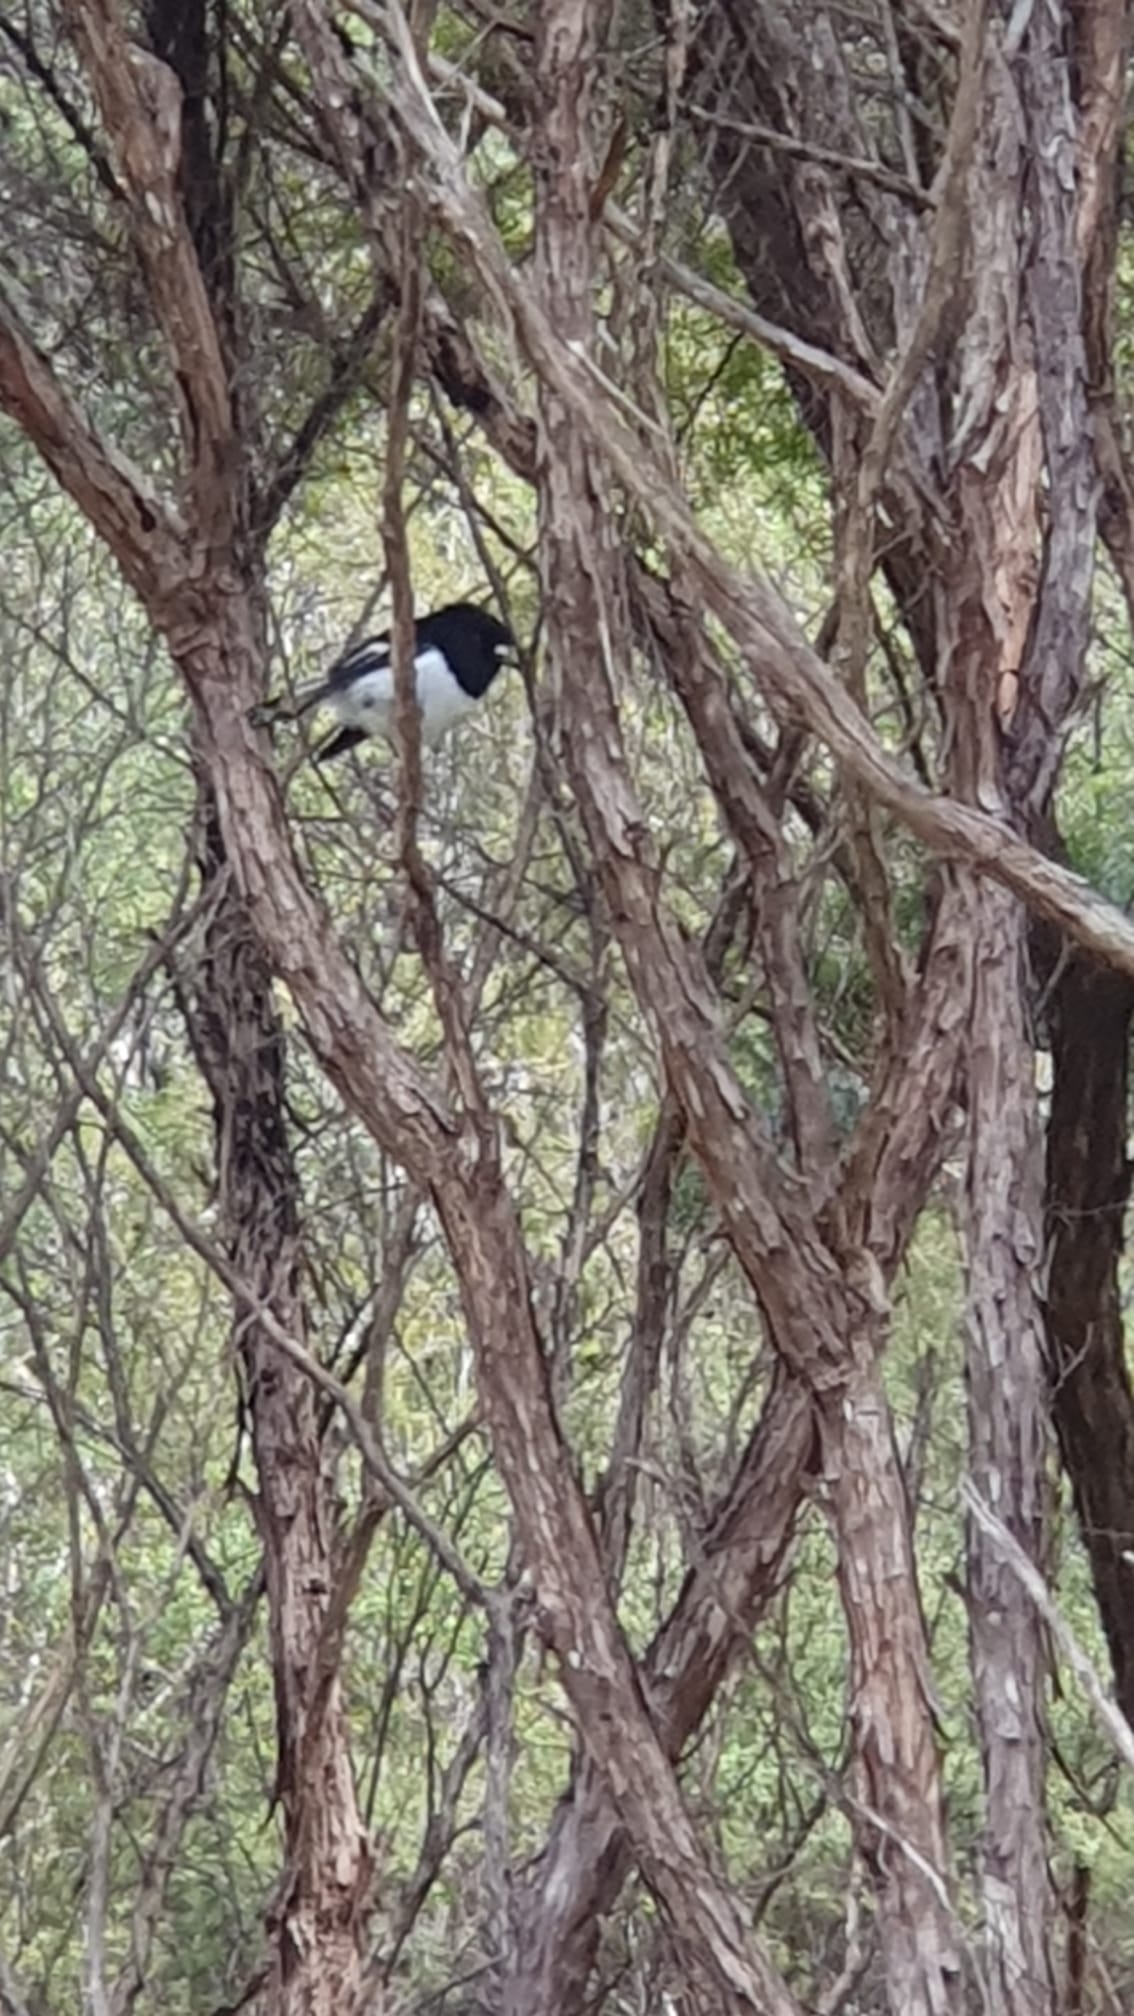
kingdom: Animalia
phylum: Chordata
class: Aves
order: Passeriformes
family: Petroicidae
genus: Petroica
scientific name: Petroica macrocephala
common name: Tomtit
